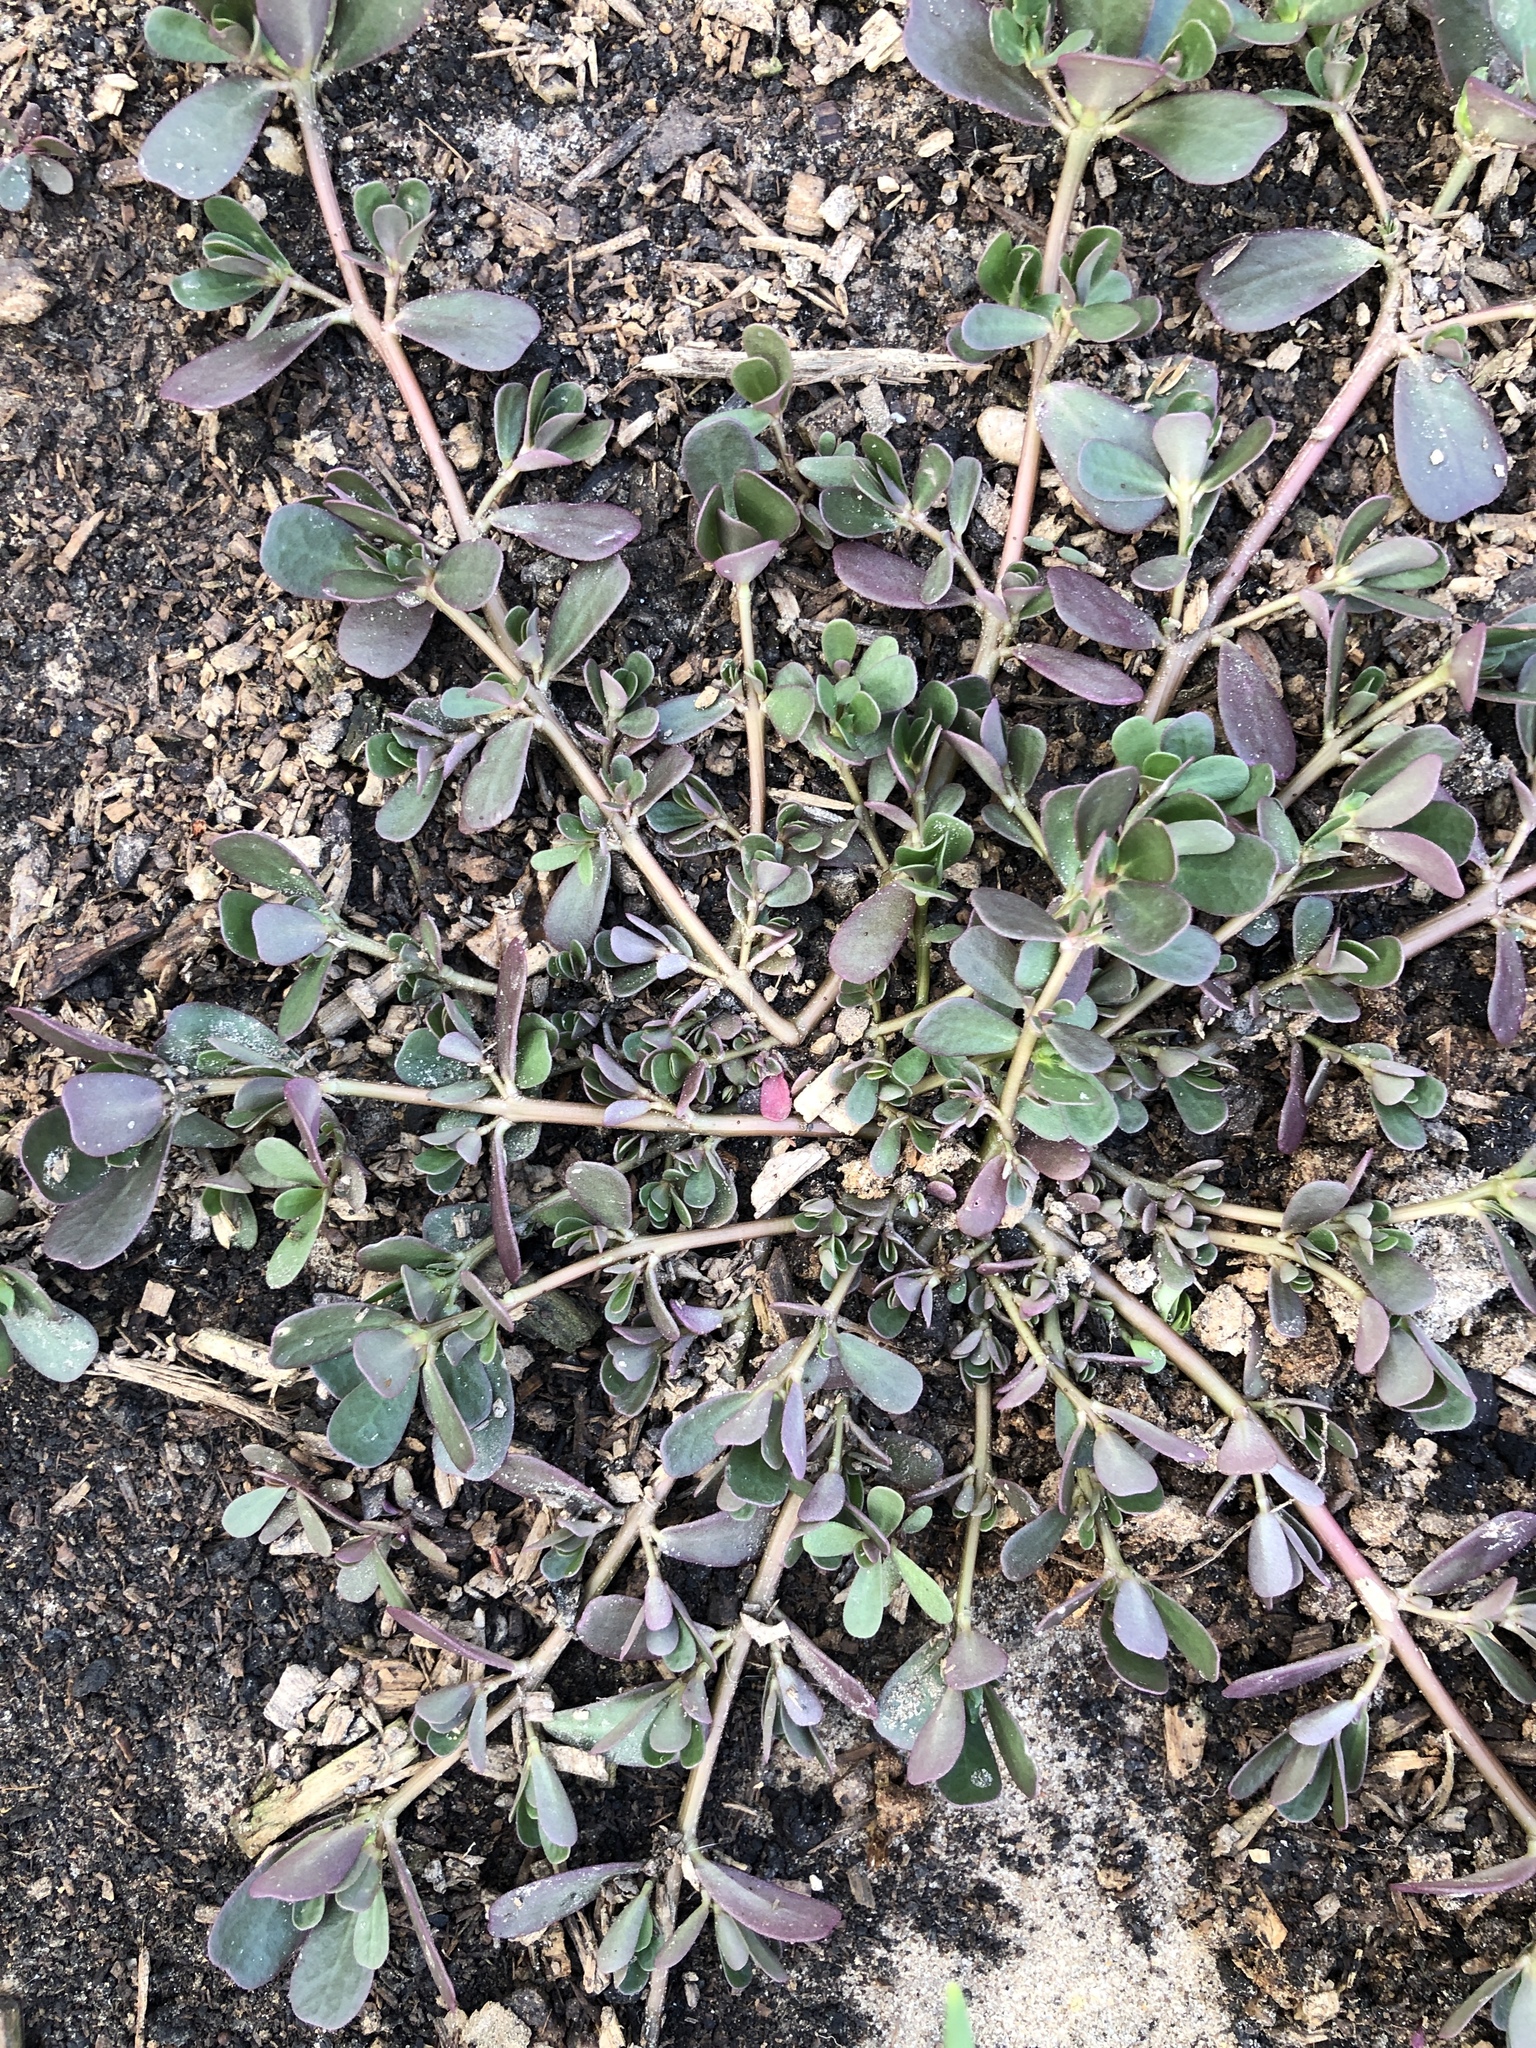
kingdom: Plantae
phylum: Tracheophyta
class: Magnoliopsida
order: Caryophyllales
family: Portulacaceae
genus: Portulaca
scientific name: Portulaca oleracea
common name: Common purslane
